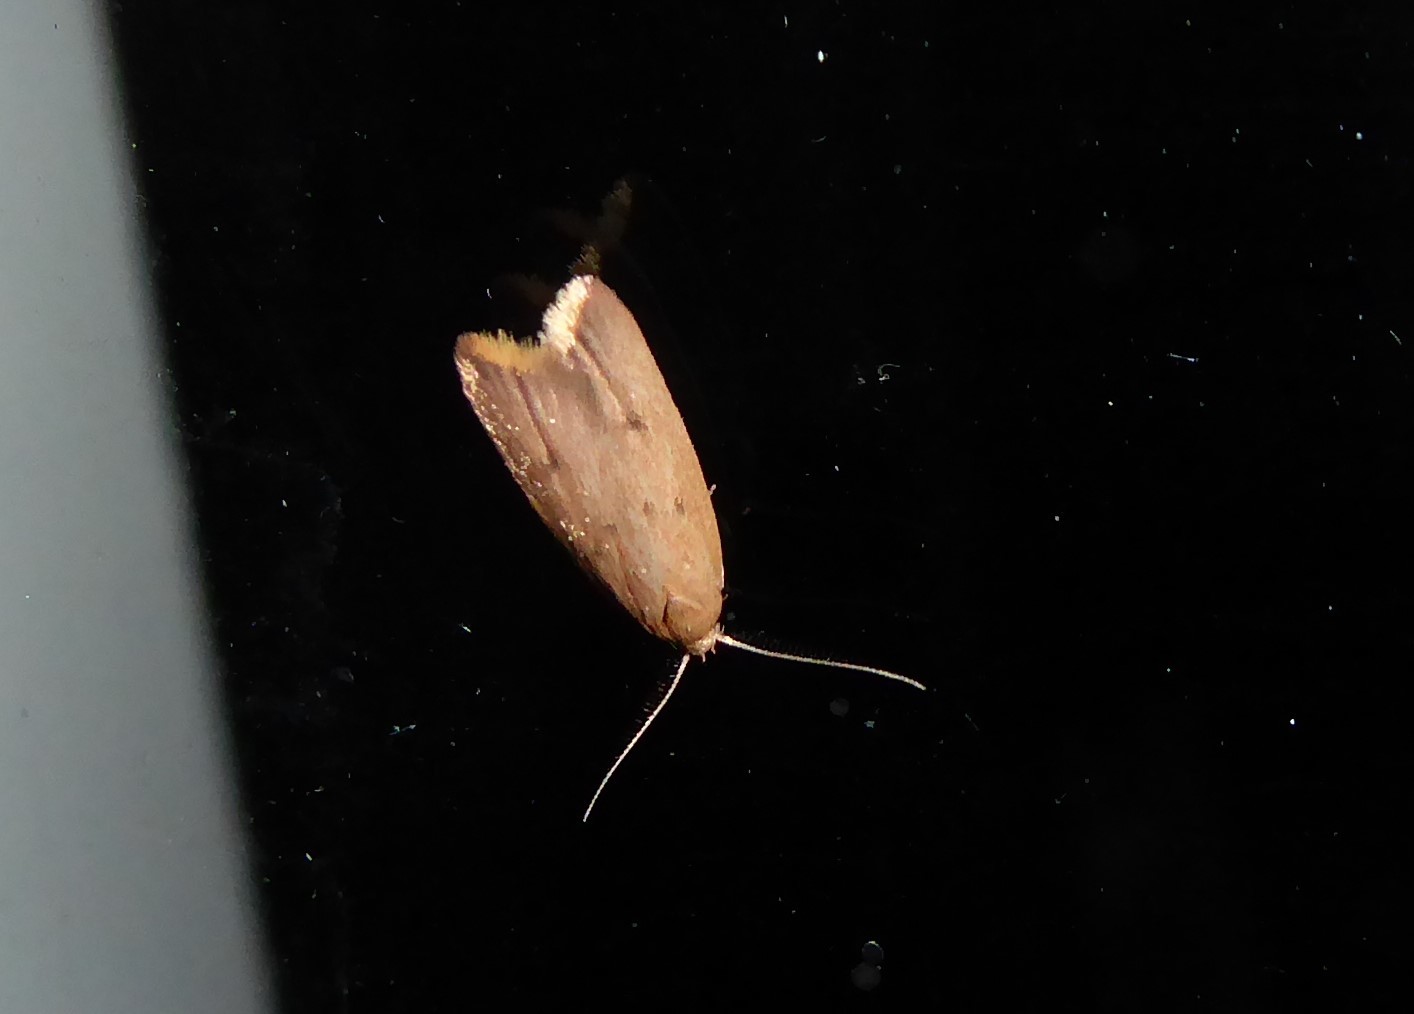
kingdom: Animalia
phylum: Arthropoda
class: Insecta
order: Lepidoptera
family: Oecophoridae
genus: Tachystola
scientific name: Tachystola acroxantha
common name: Ruddy streak
